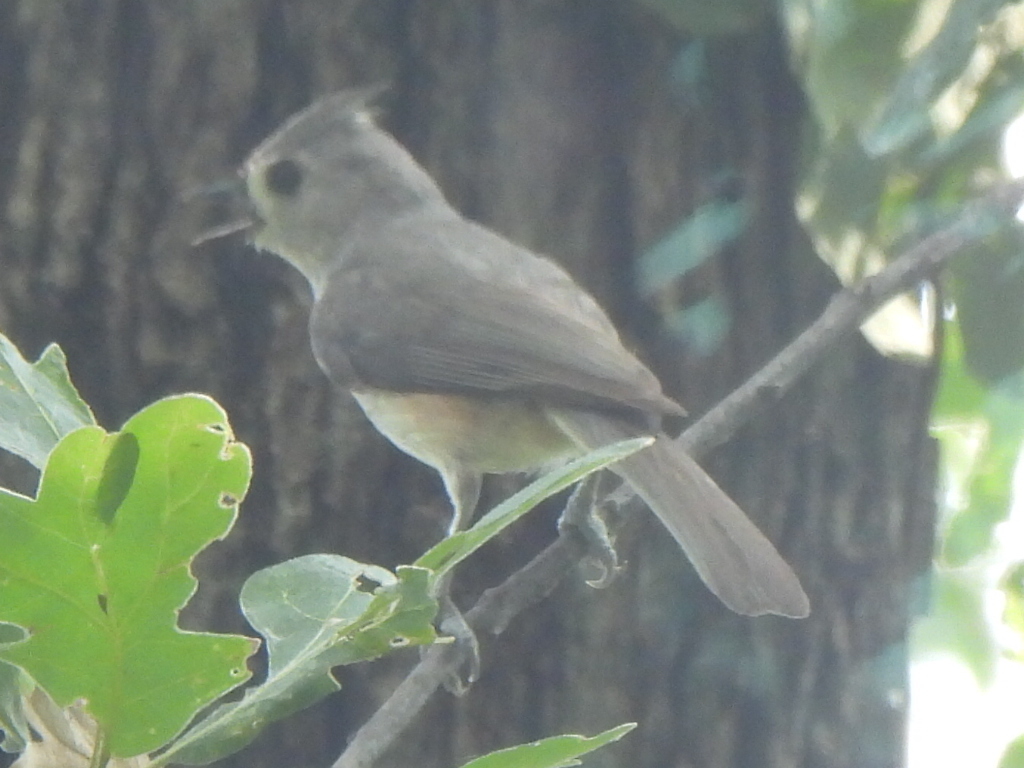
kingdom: Animalia
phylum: Chordata
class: Aves
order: Passeriformes
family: Paridae
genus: Baeolophus
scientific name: Baeolophus bicolor
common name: Tufted titmouse
